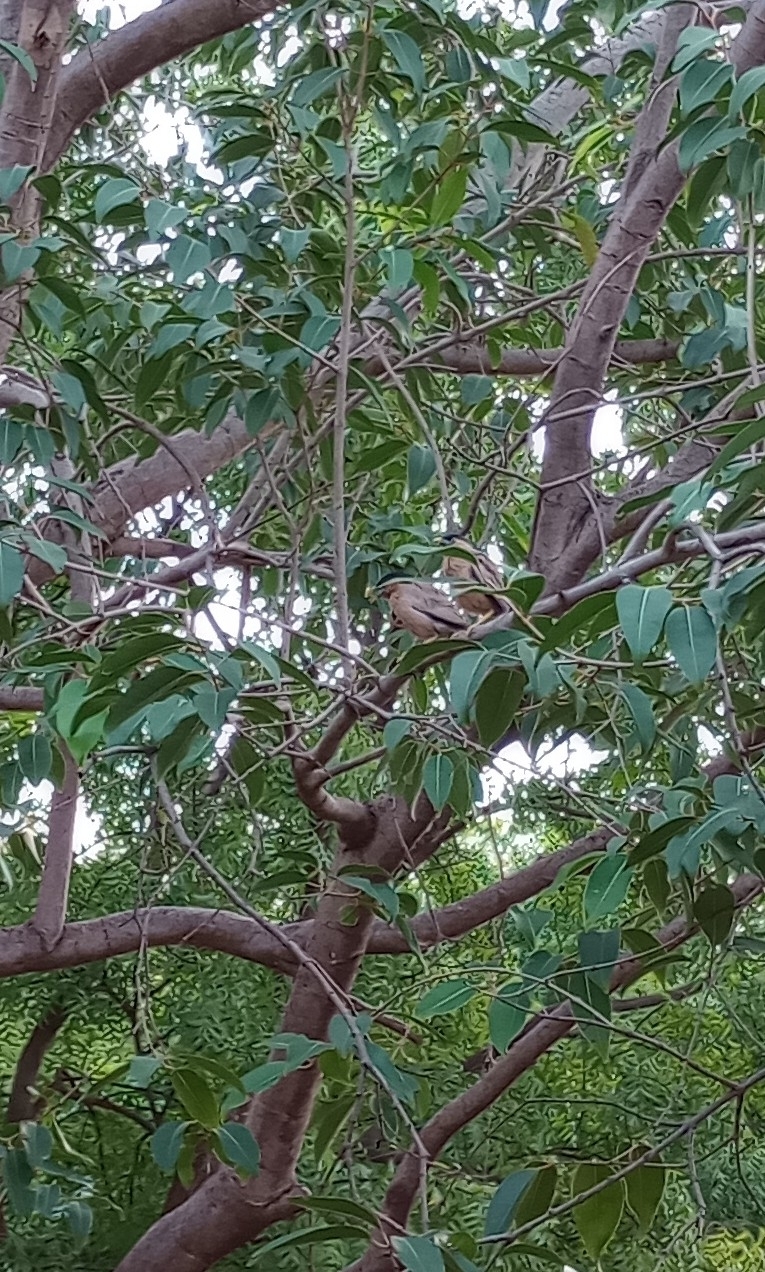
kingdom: Animalia
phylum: Chordata
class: Aves
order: Passeriformes
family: Sturnidae
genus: Sturnia
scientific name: Sturnia pagodarum
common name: Brahminy starling
